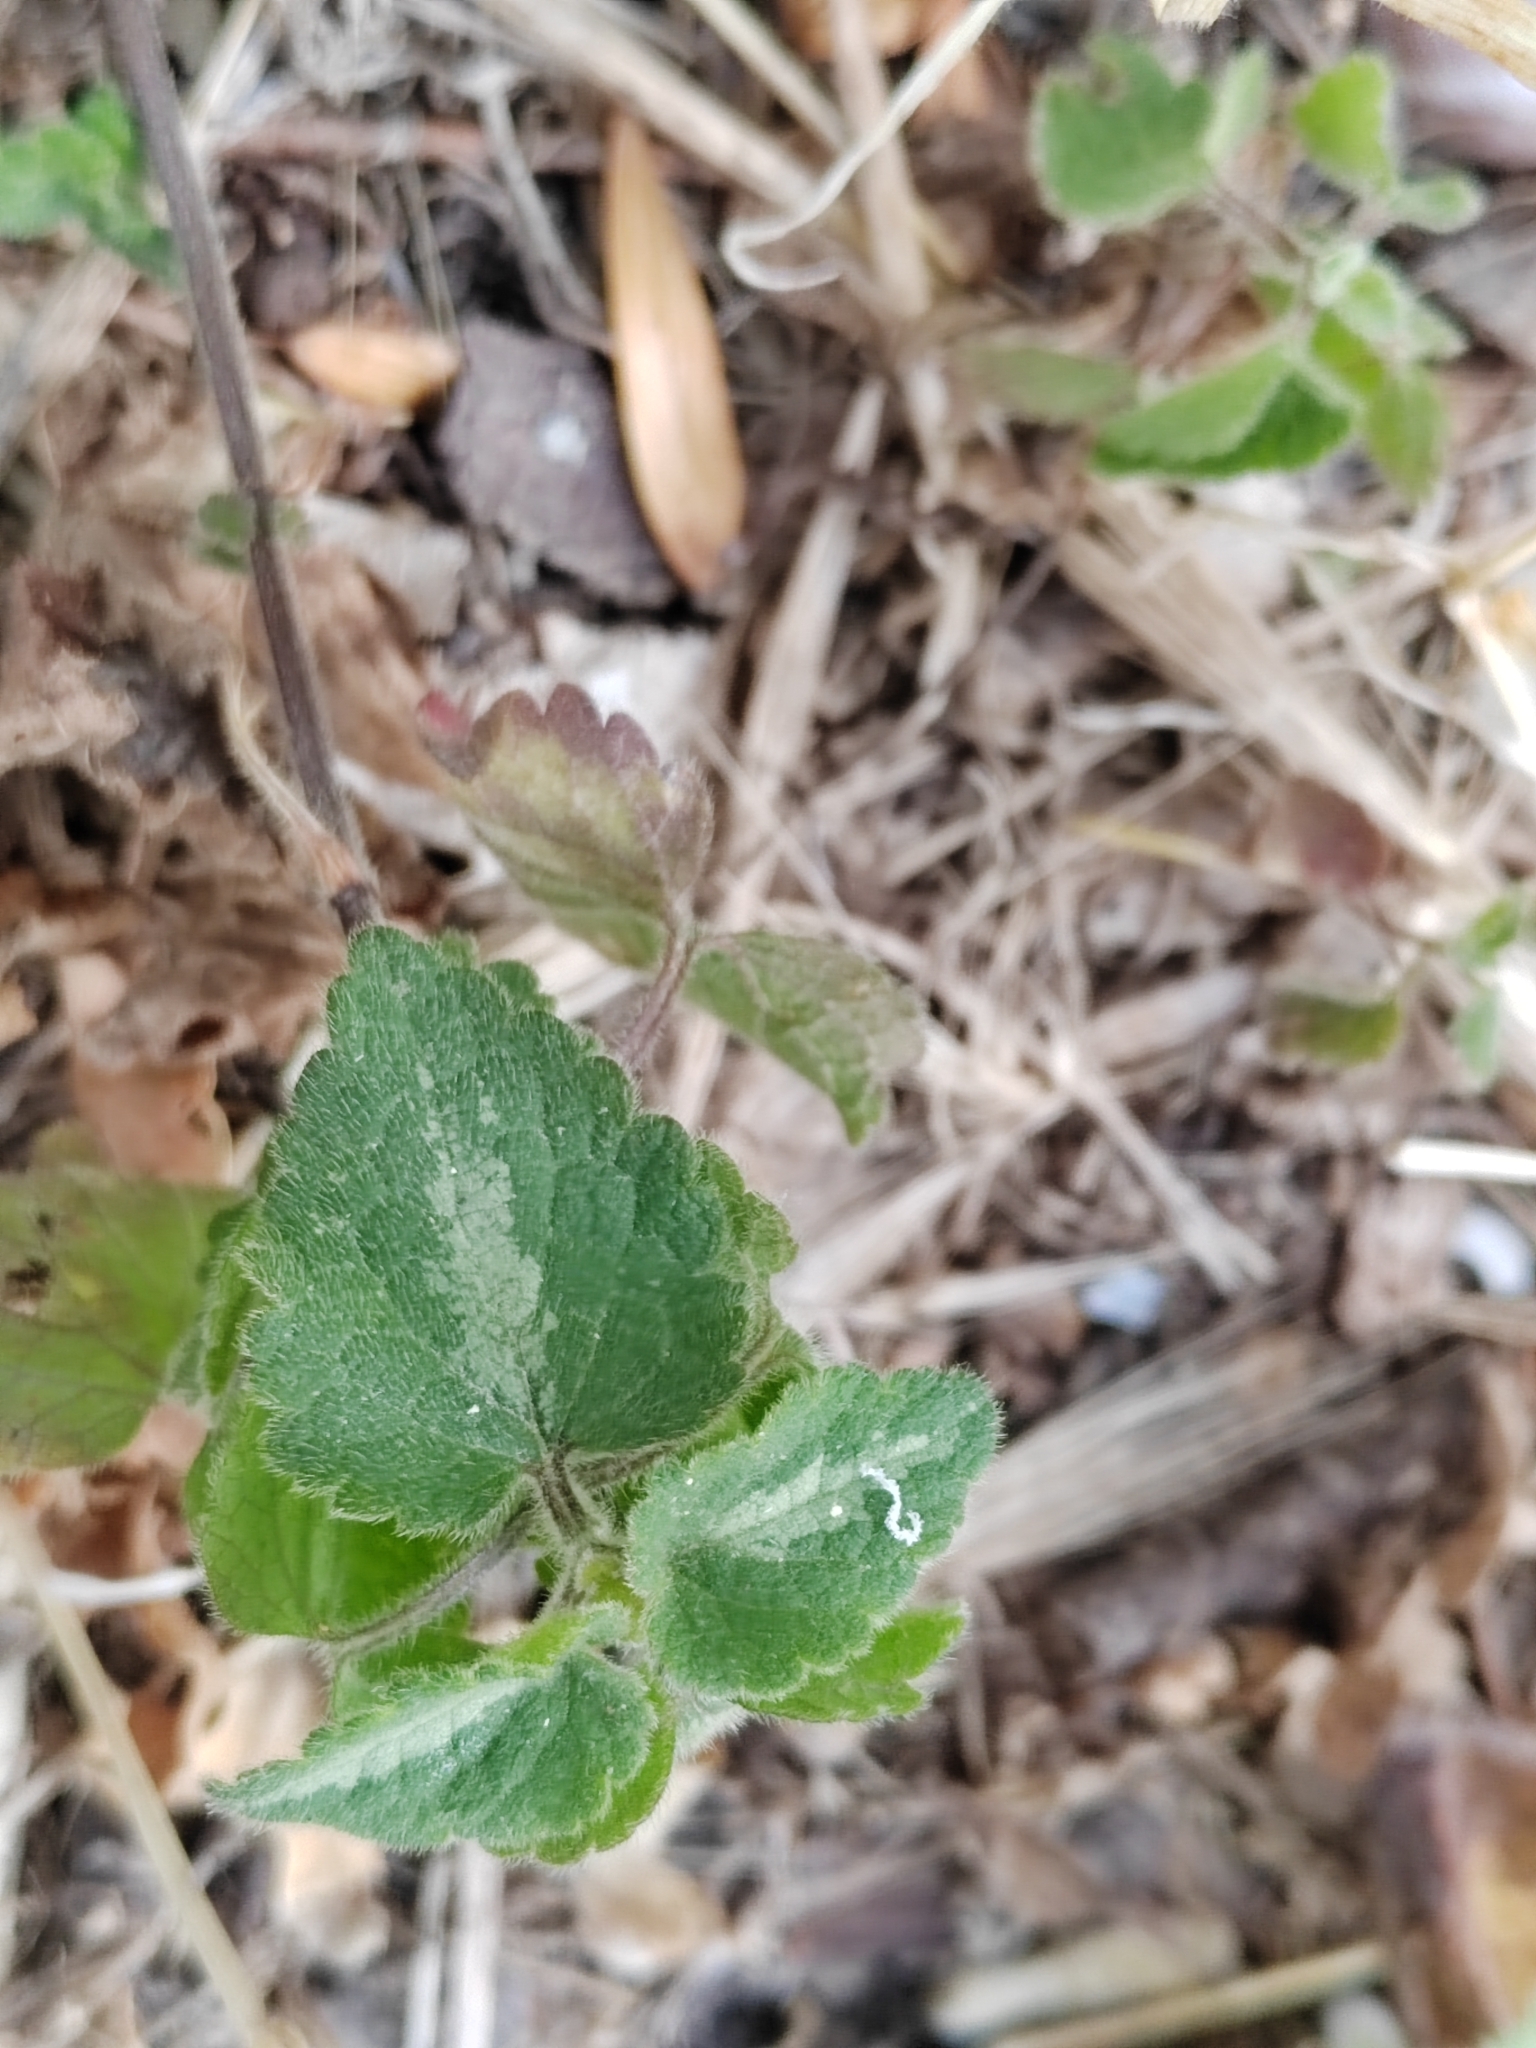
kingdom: Plantae
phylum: Tracheophyta
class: Magnoliopsida
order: Lamiales
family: Lamiaceae
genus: Lamium
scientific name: Lamium maculatum
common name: Spotted dead-nettle
